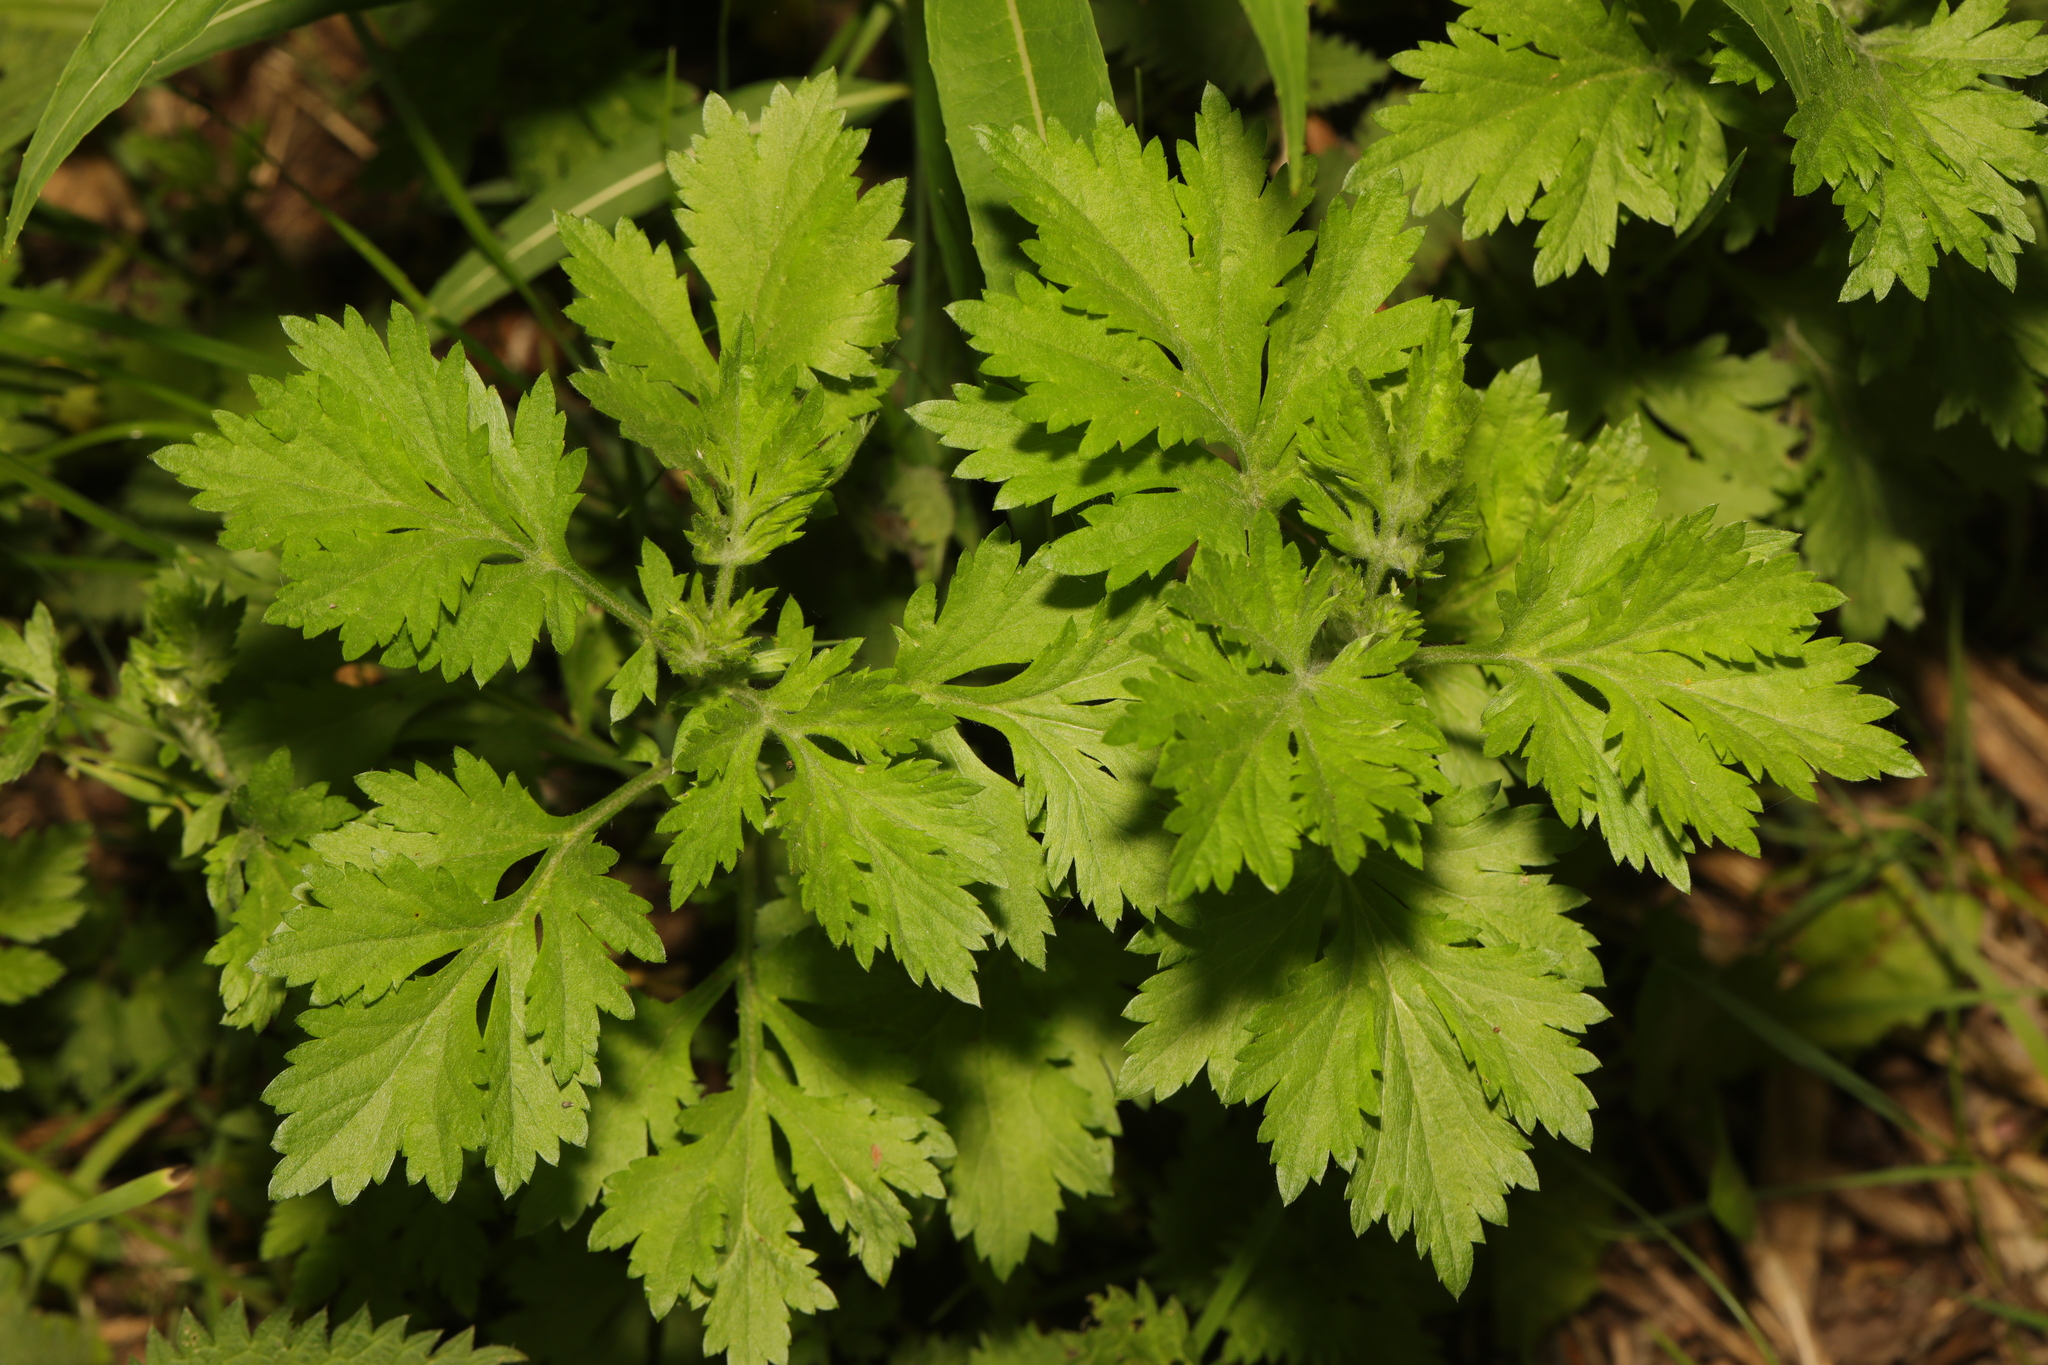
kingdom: Plantae
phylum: Tracheophyta
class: Magnoliopsida
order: Asterales
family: Asteraceae
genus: Artemisia
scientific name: Artemisia vulgaris
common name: Mugwort
